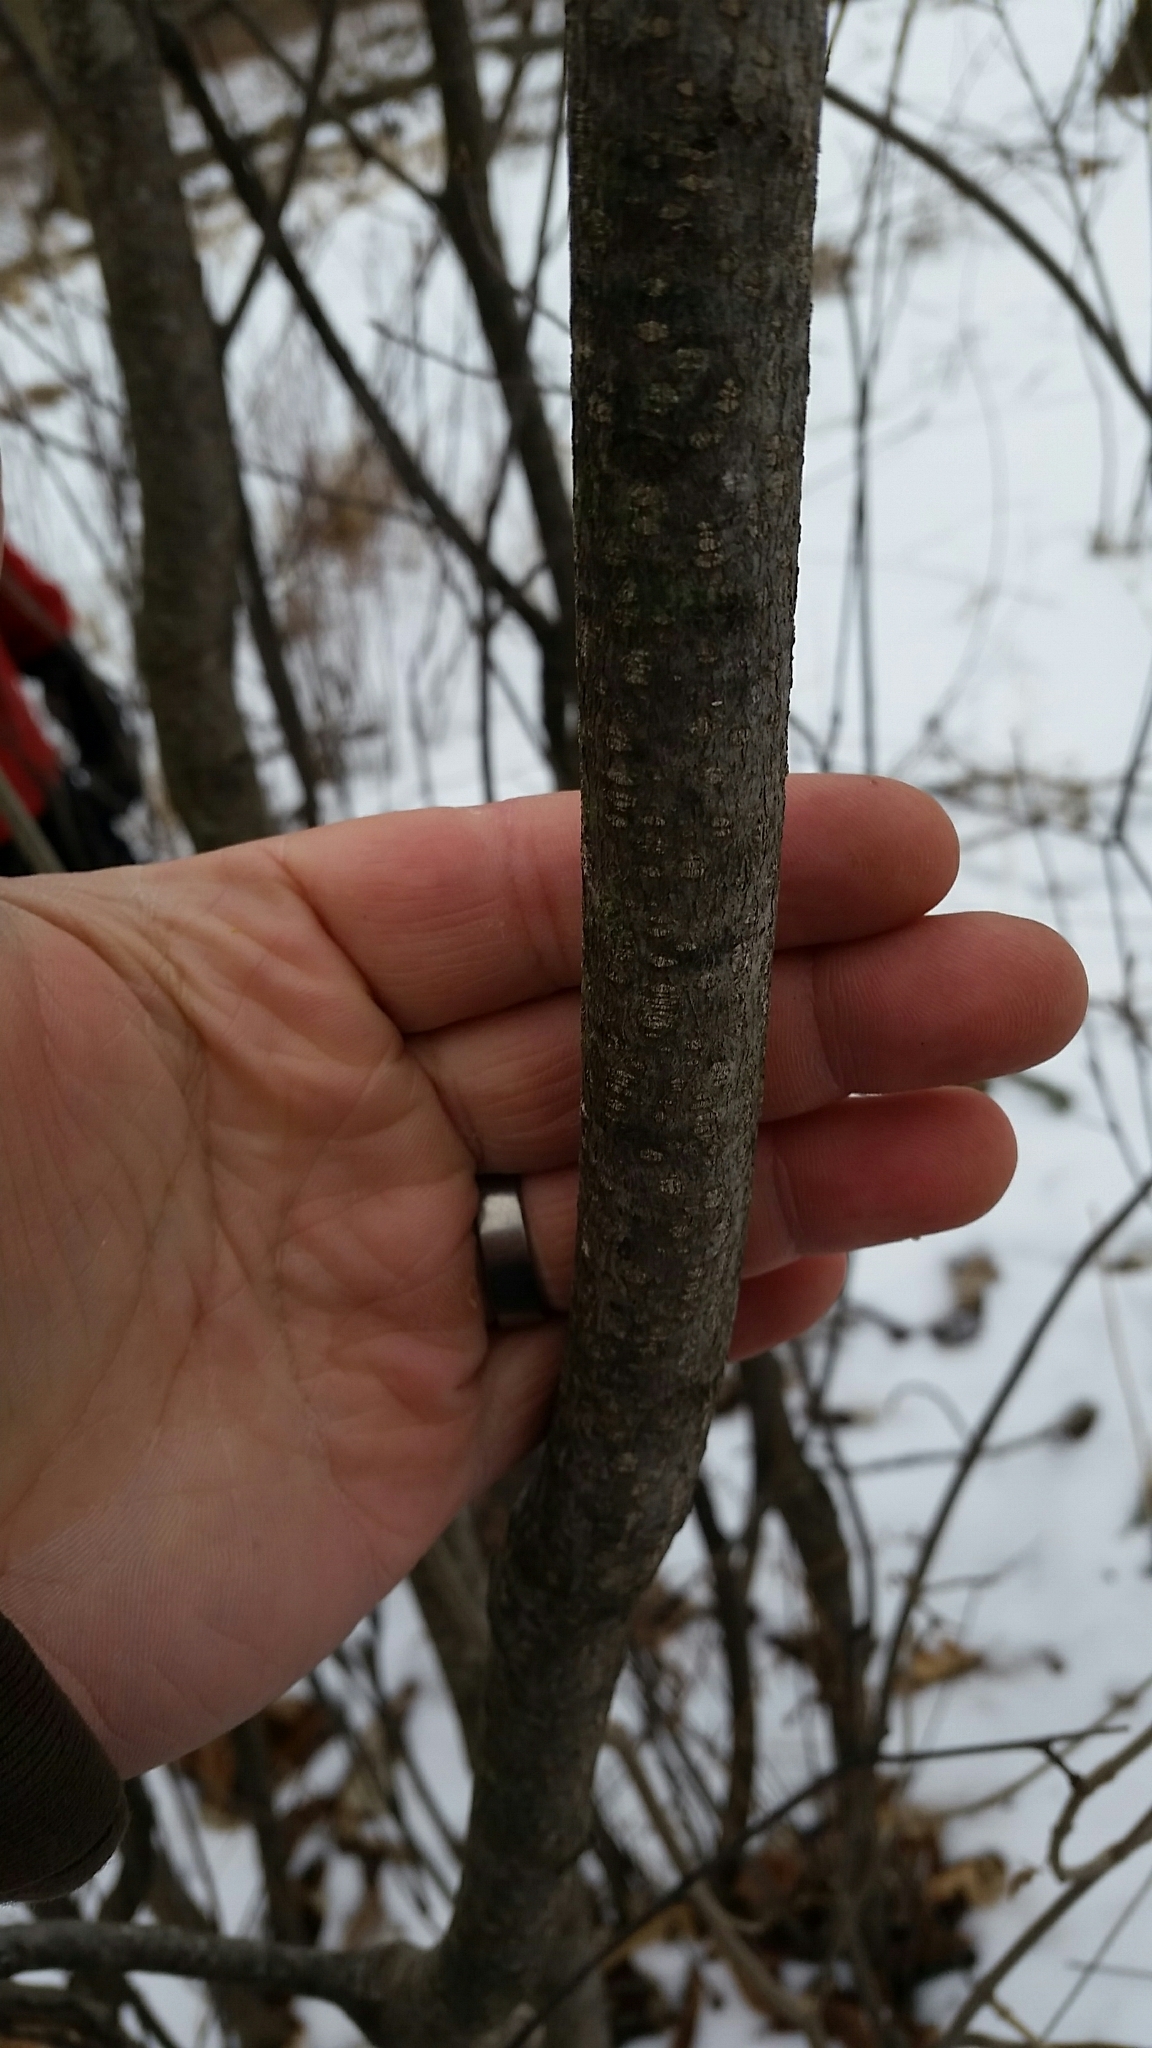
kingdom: Plantae
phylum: Tracheophyta
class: Magnoliopsida
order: Rosales
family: Rhamnaceae
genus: Frangula
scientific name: Frangula alnus
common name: Alder buckthorn
